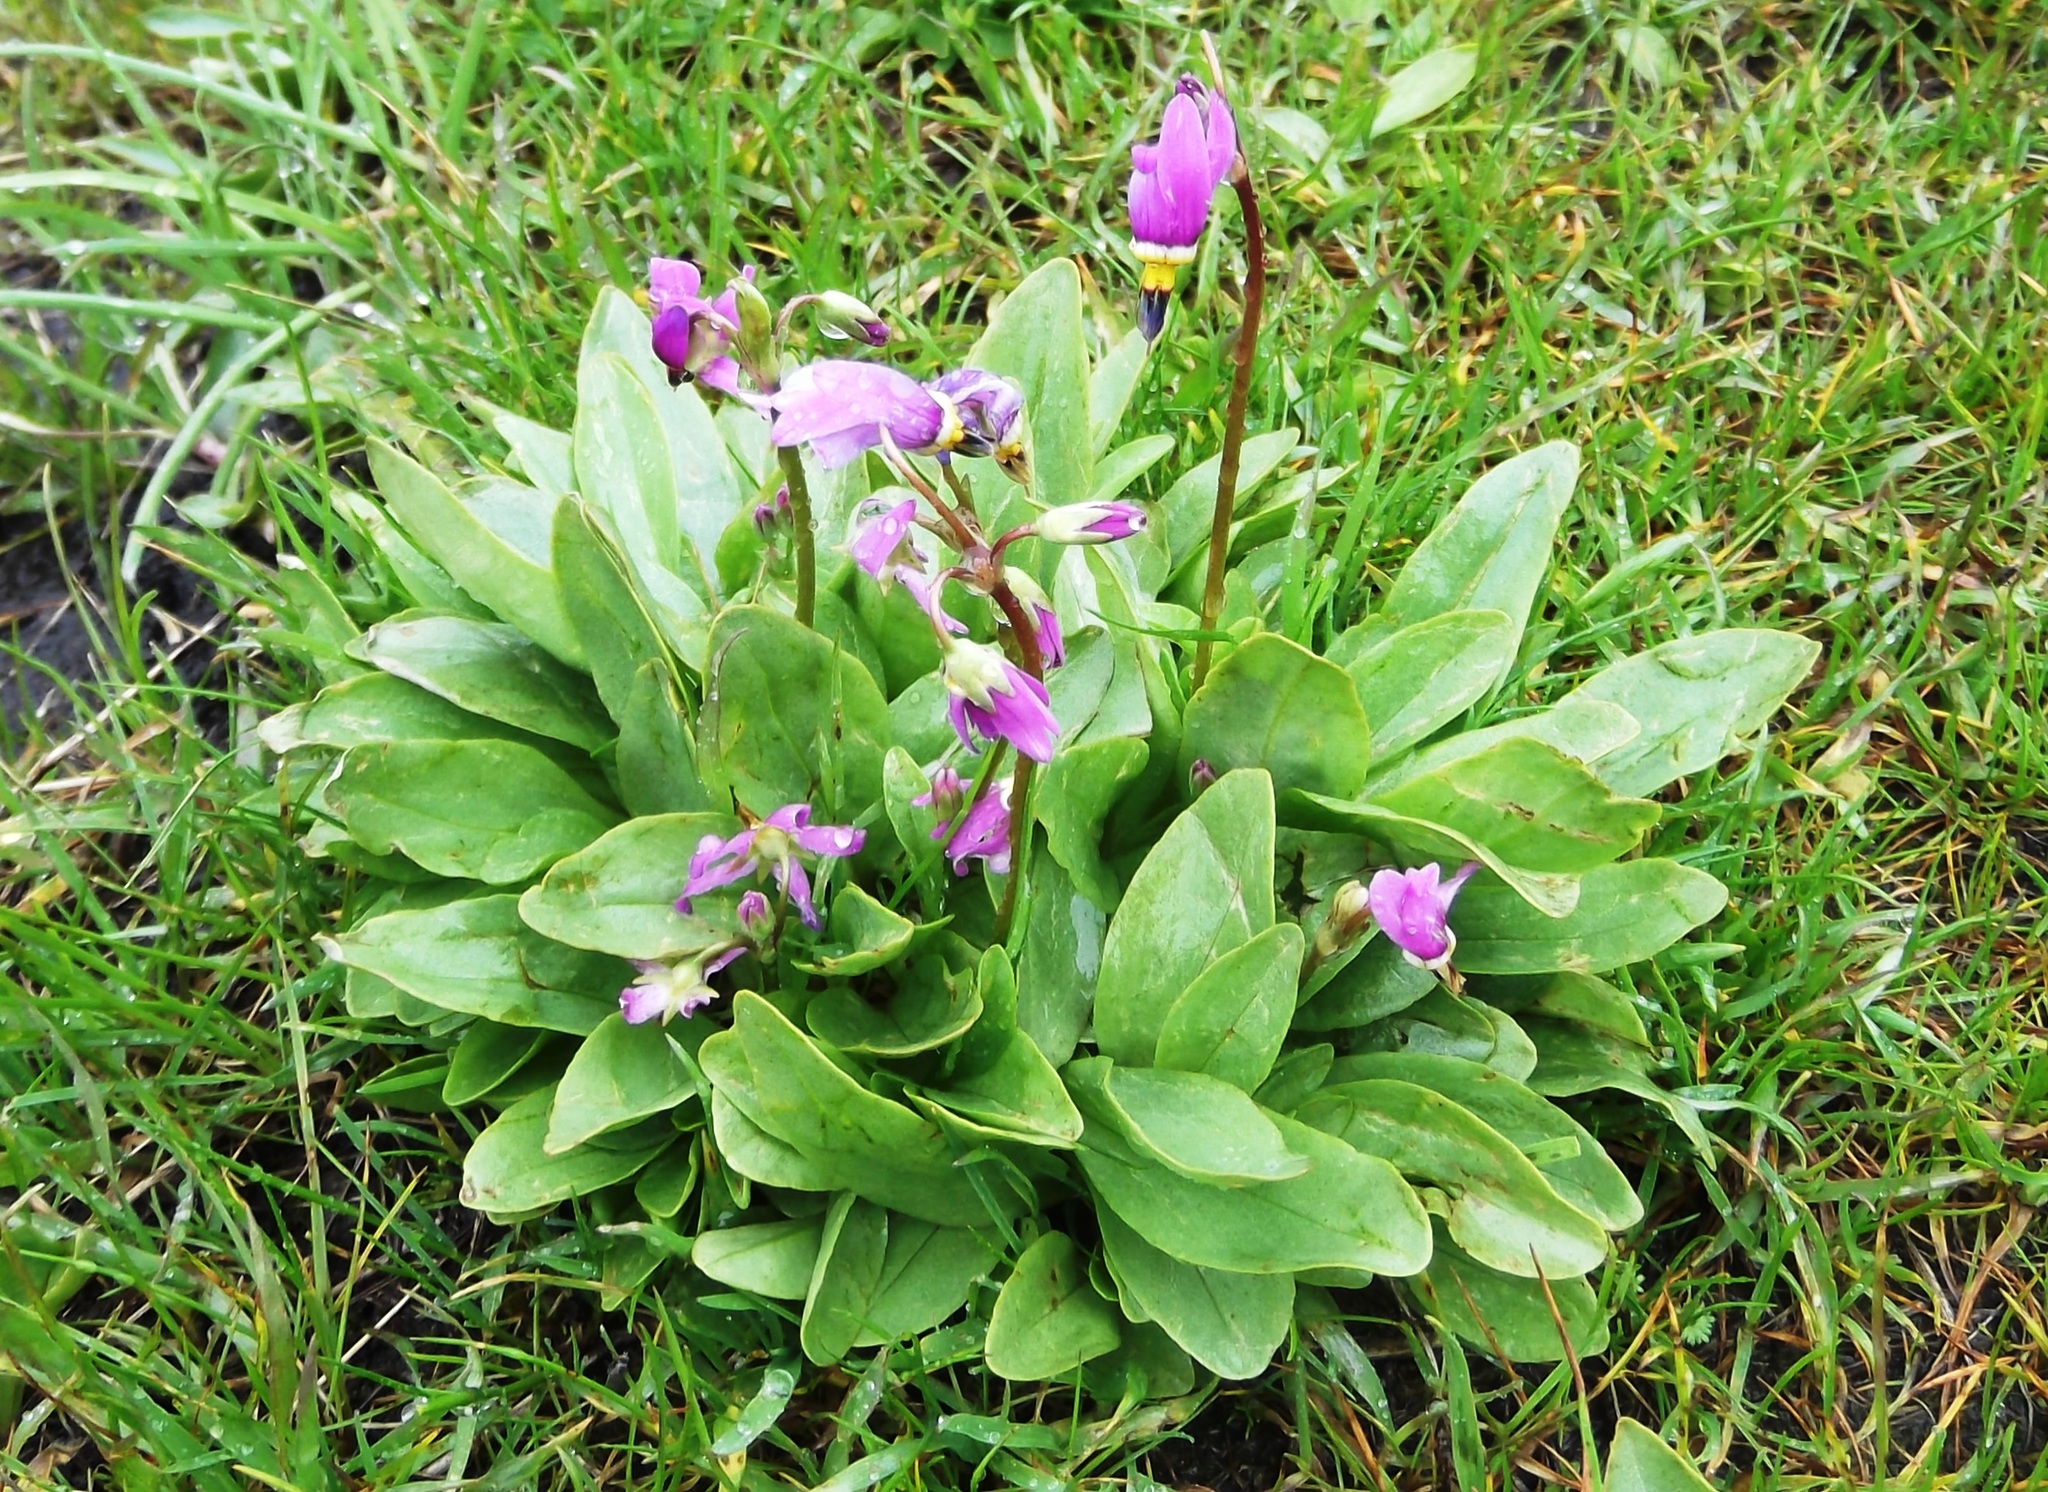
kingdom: Plantae
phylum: Tracheophyta
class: Magnoliopsida
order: Ericales
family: Primulaceae
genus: Dodecatheon
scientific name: Dodecatheon pulchellum
